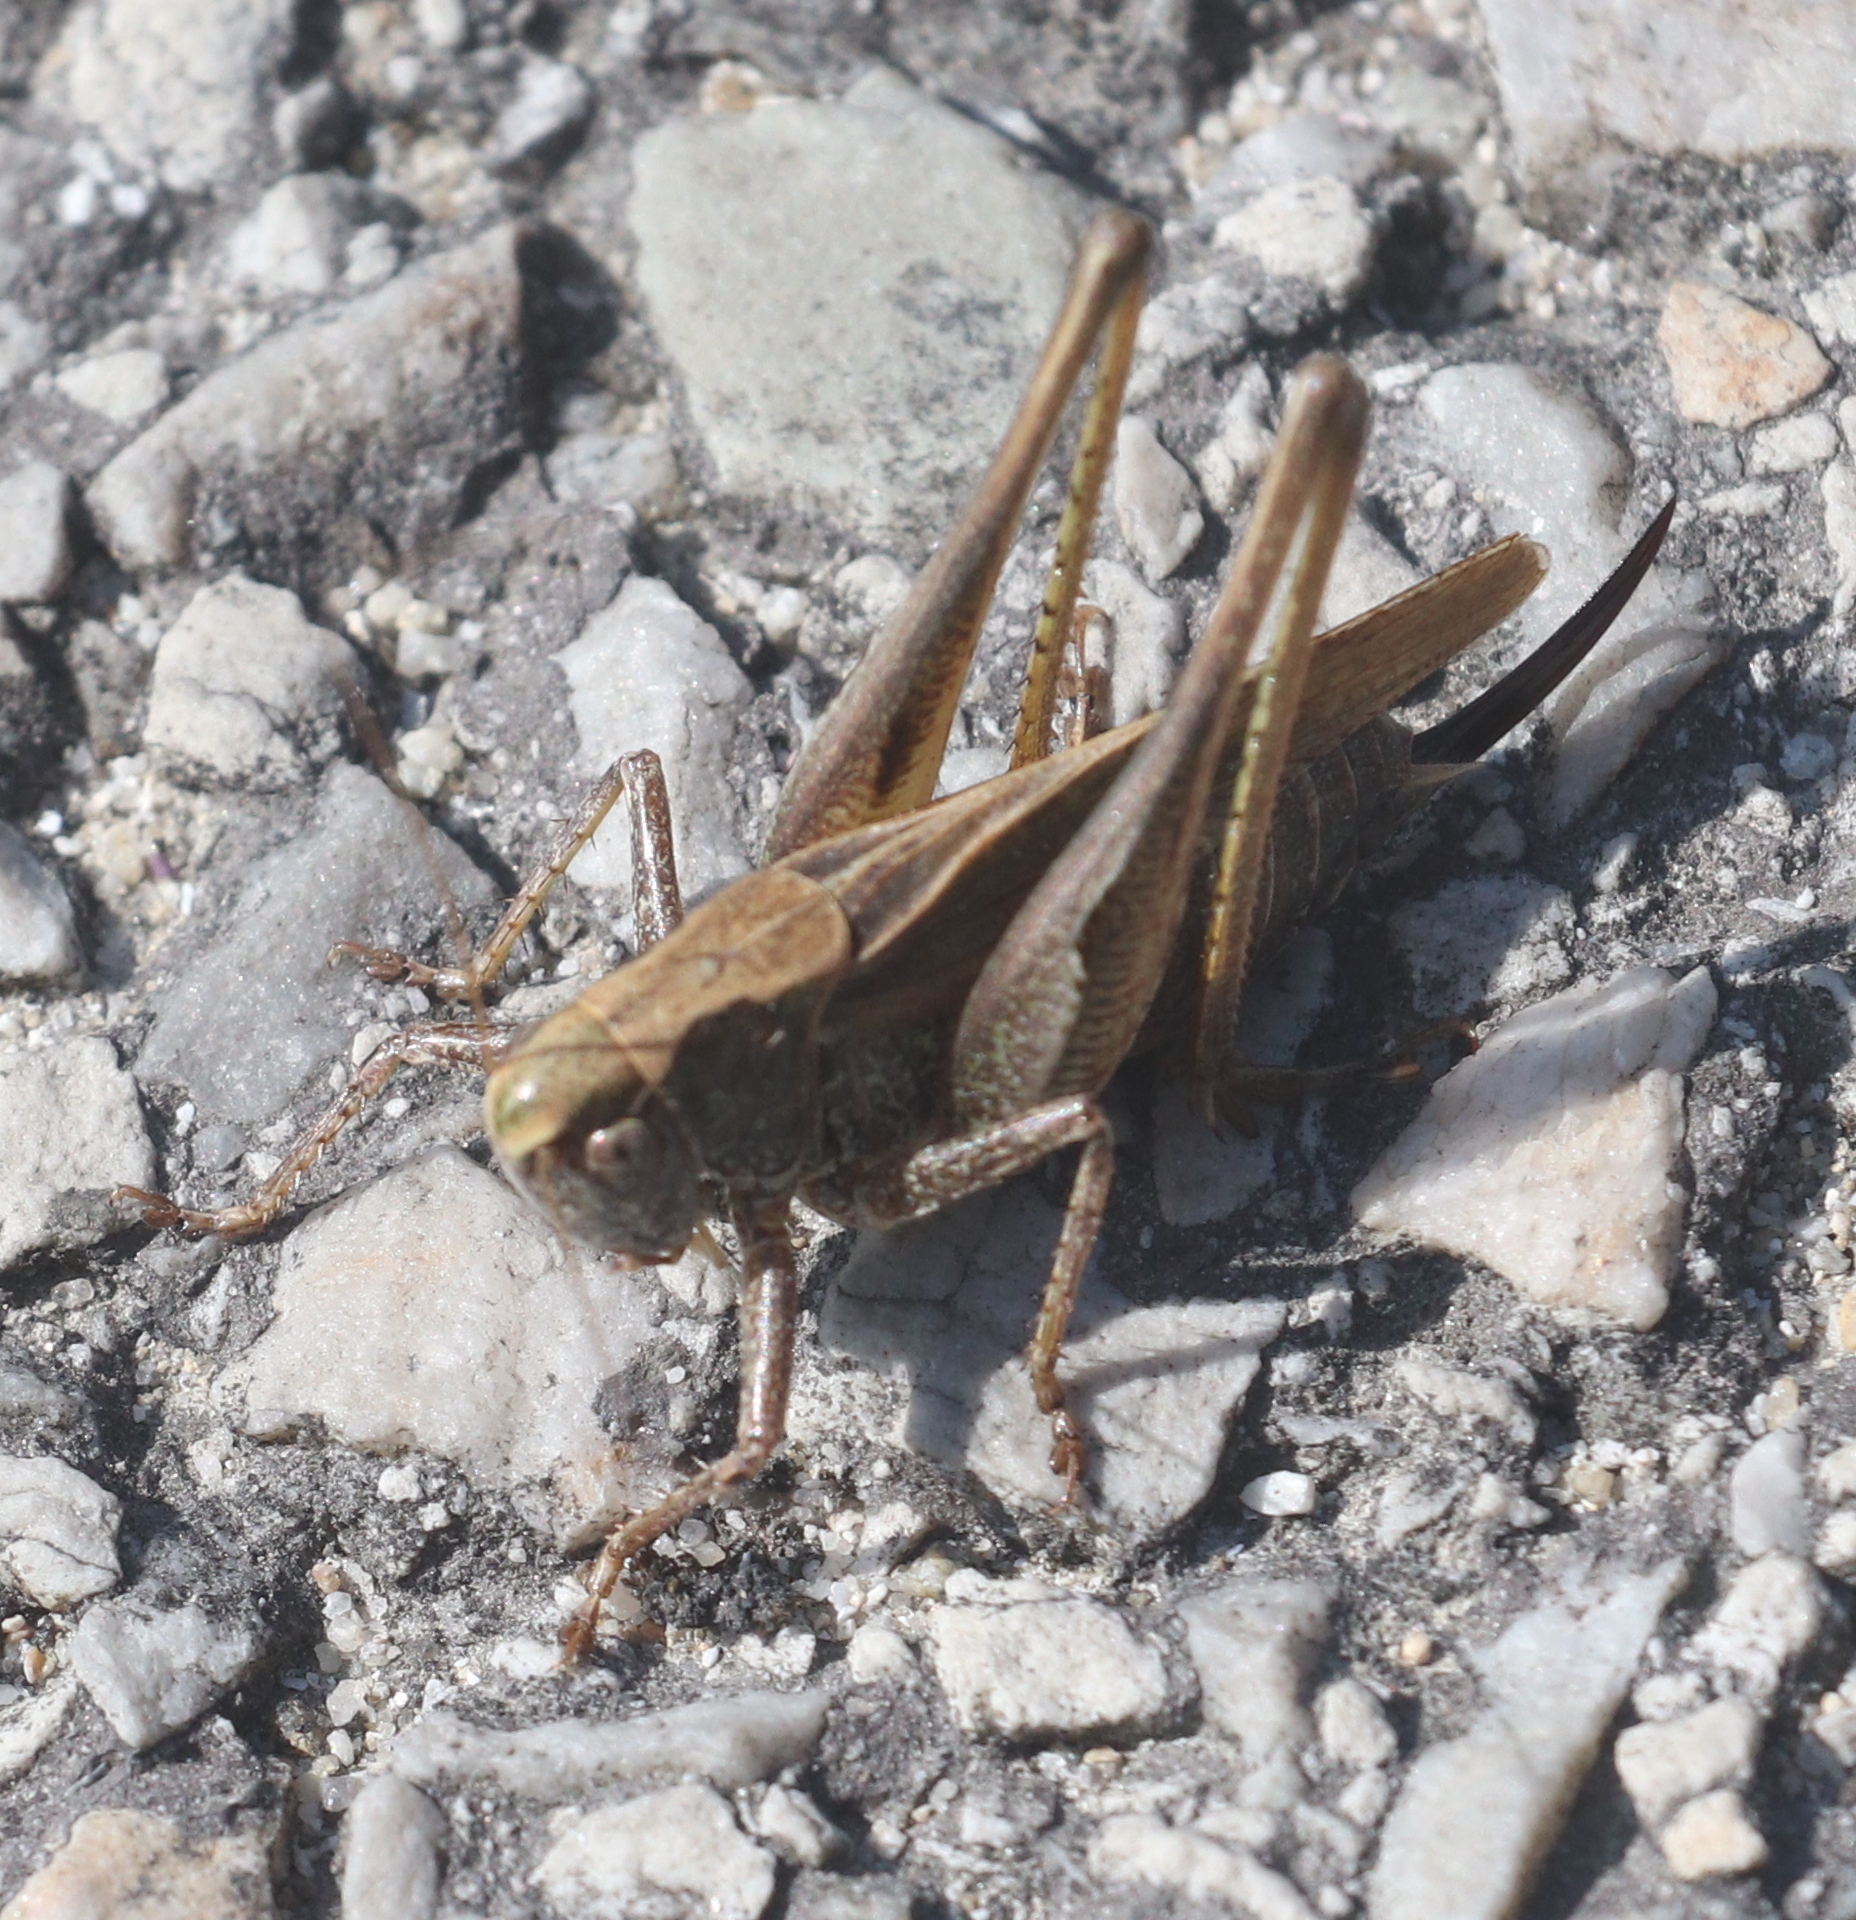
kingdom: Animalia
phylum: Arthropoda
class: Insecta
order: Orthoptera
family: Tettigoniidae
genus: Platycleis
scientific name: Platycleis albopunctata
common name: Grey bush-cricket
